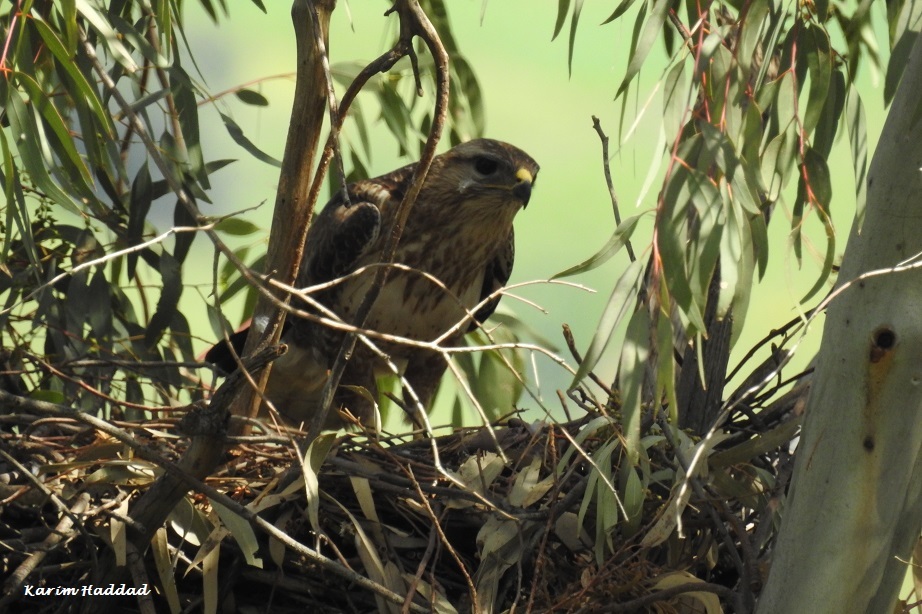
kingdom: Animalia
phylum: Chordata
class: Aves
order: Accipitriformes
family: Accipitridae
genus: Buteo
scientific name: Buteo rufinus
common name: Long-legged buzzard
